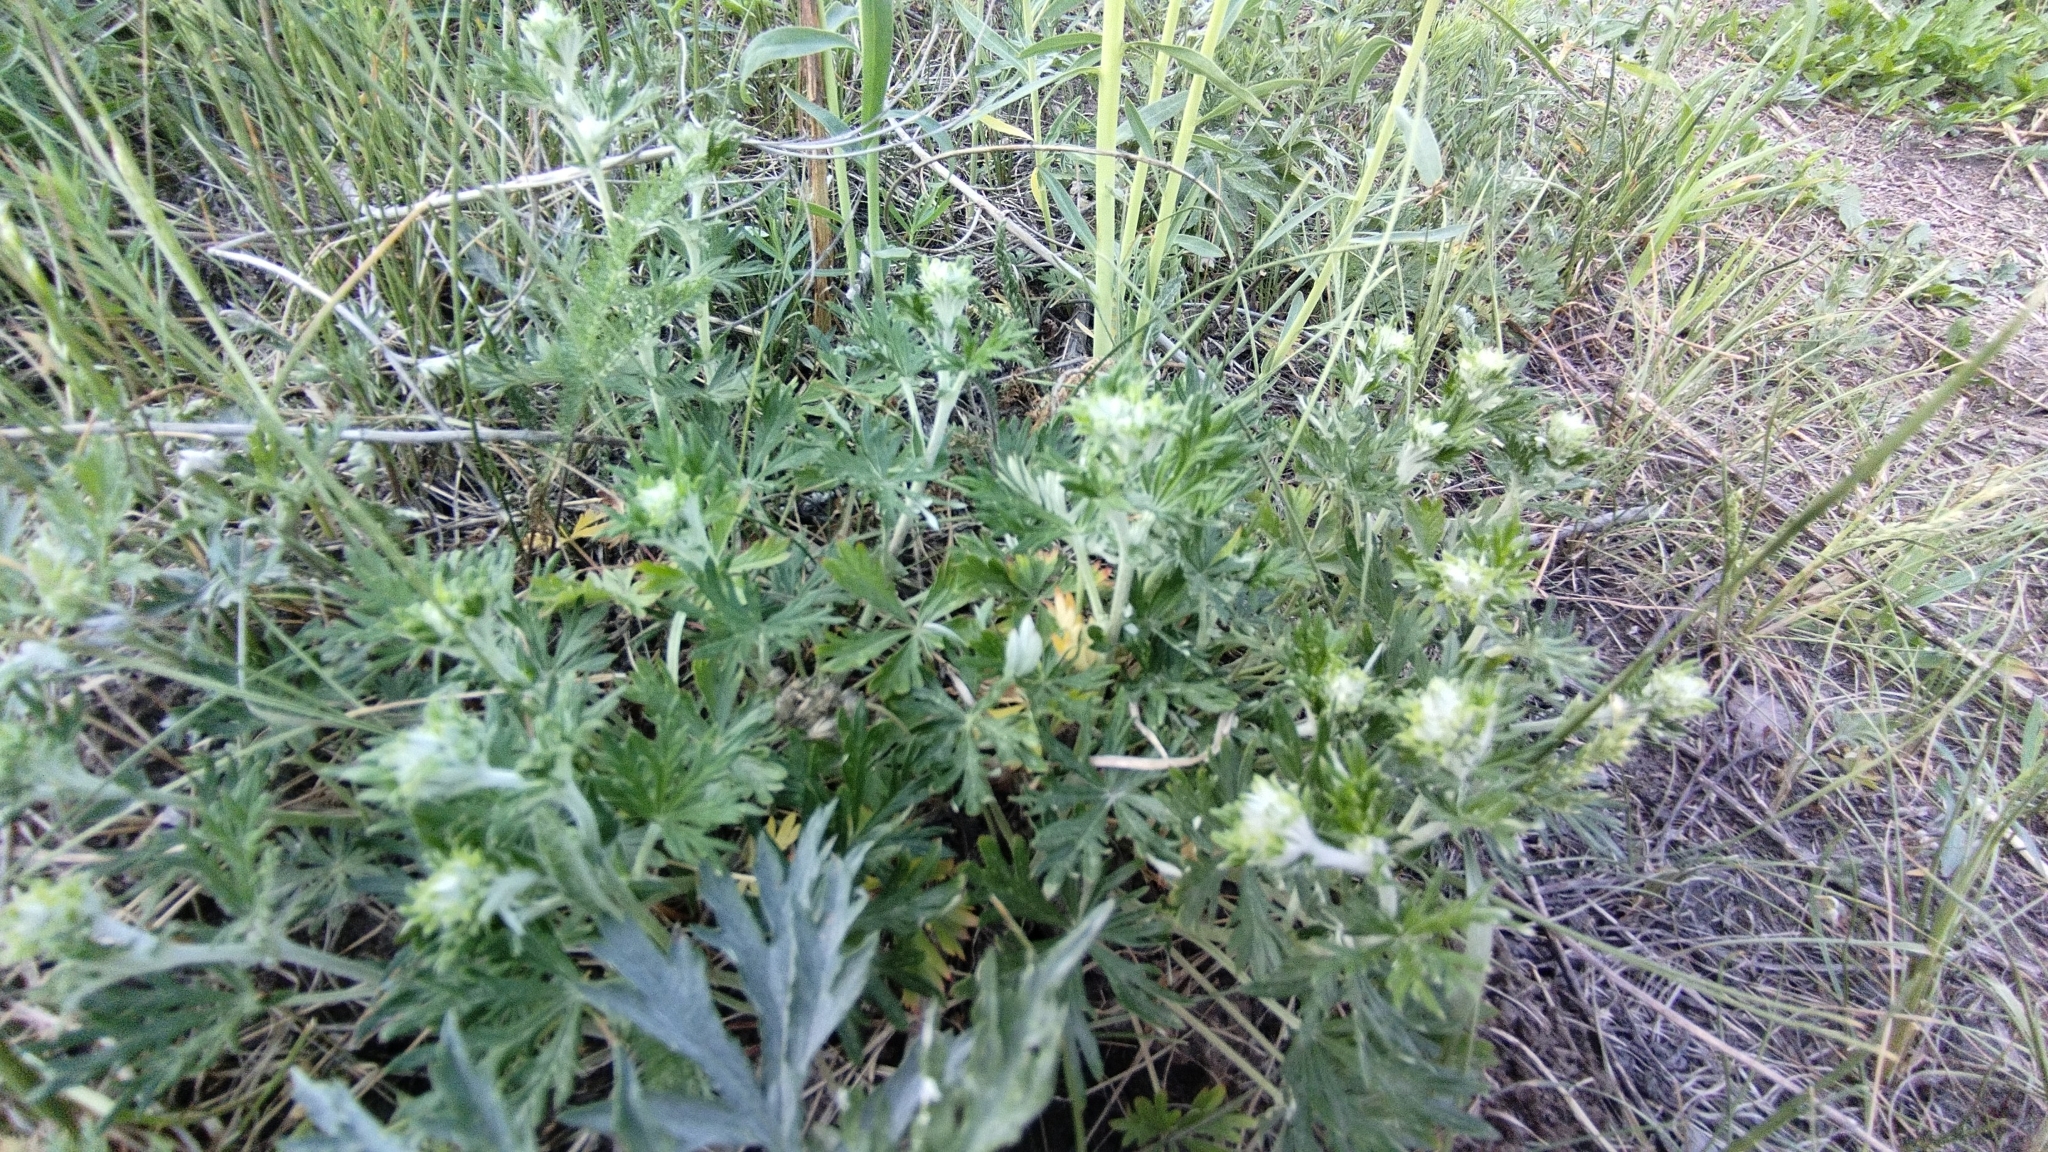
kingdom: Plantae
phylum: Tracheophyta
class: Magnoliopsida
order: Rosales
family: Rosaceae
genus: Potentilla
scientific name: Potentilla argentea
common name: Hoary cinquefoil
